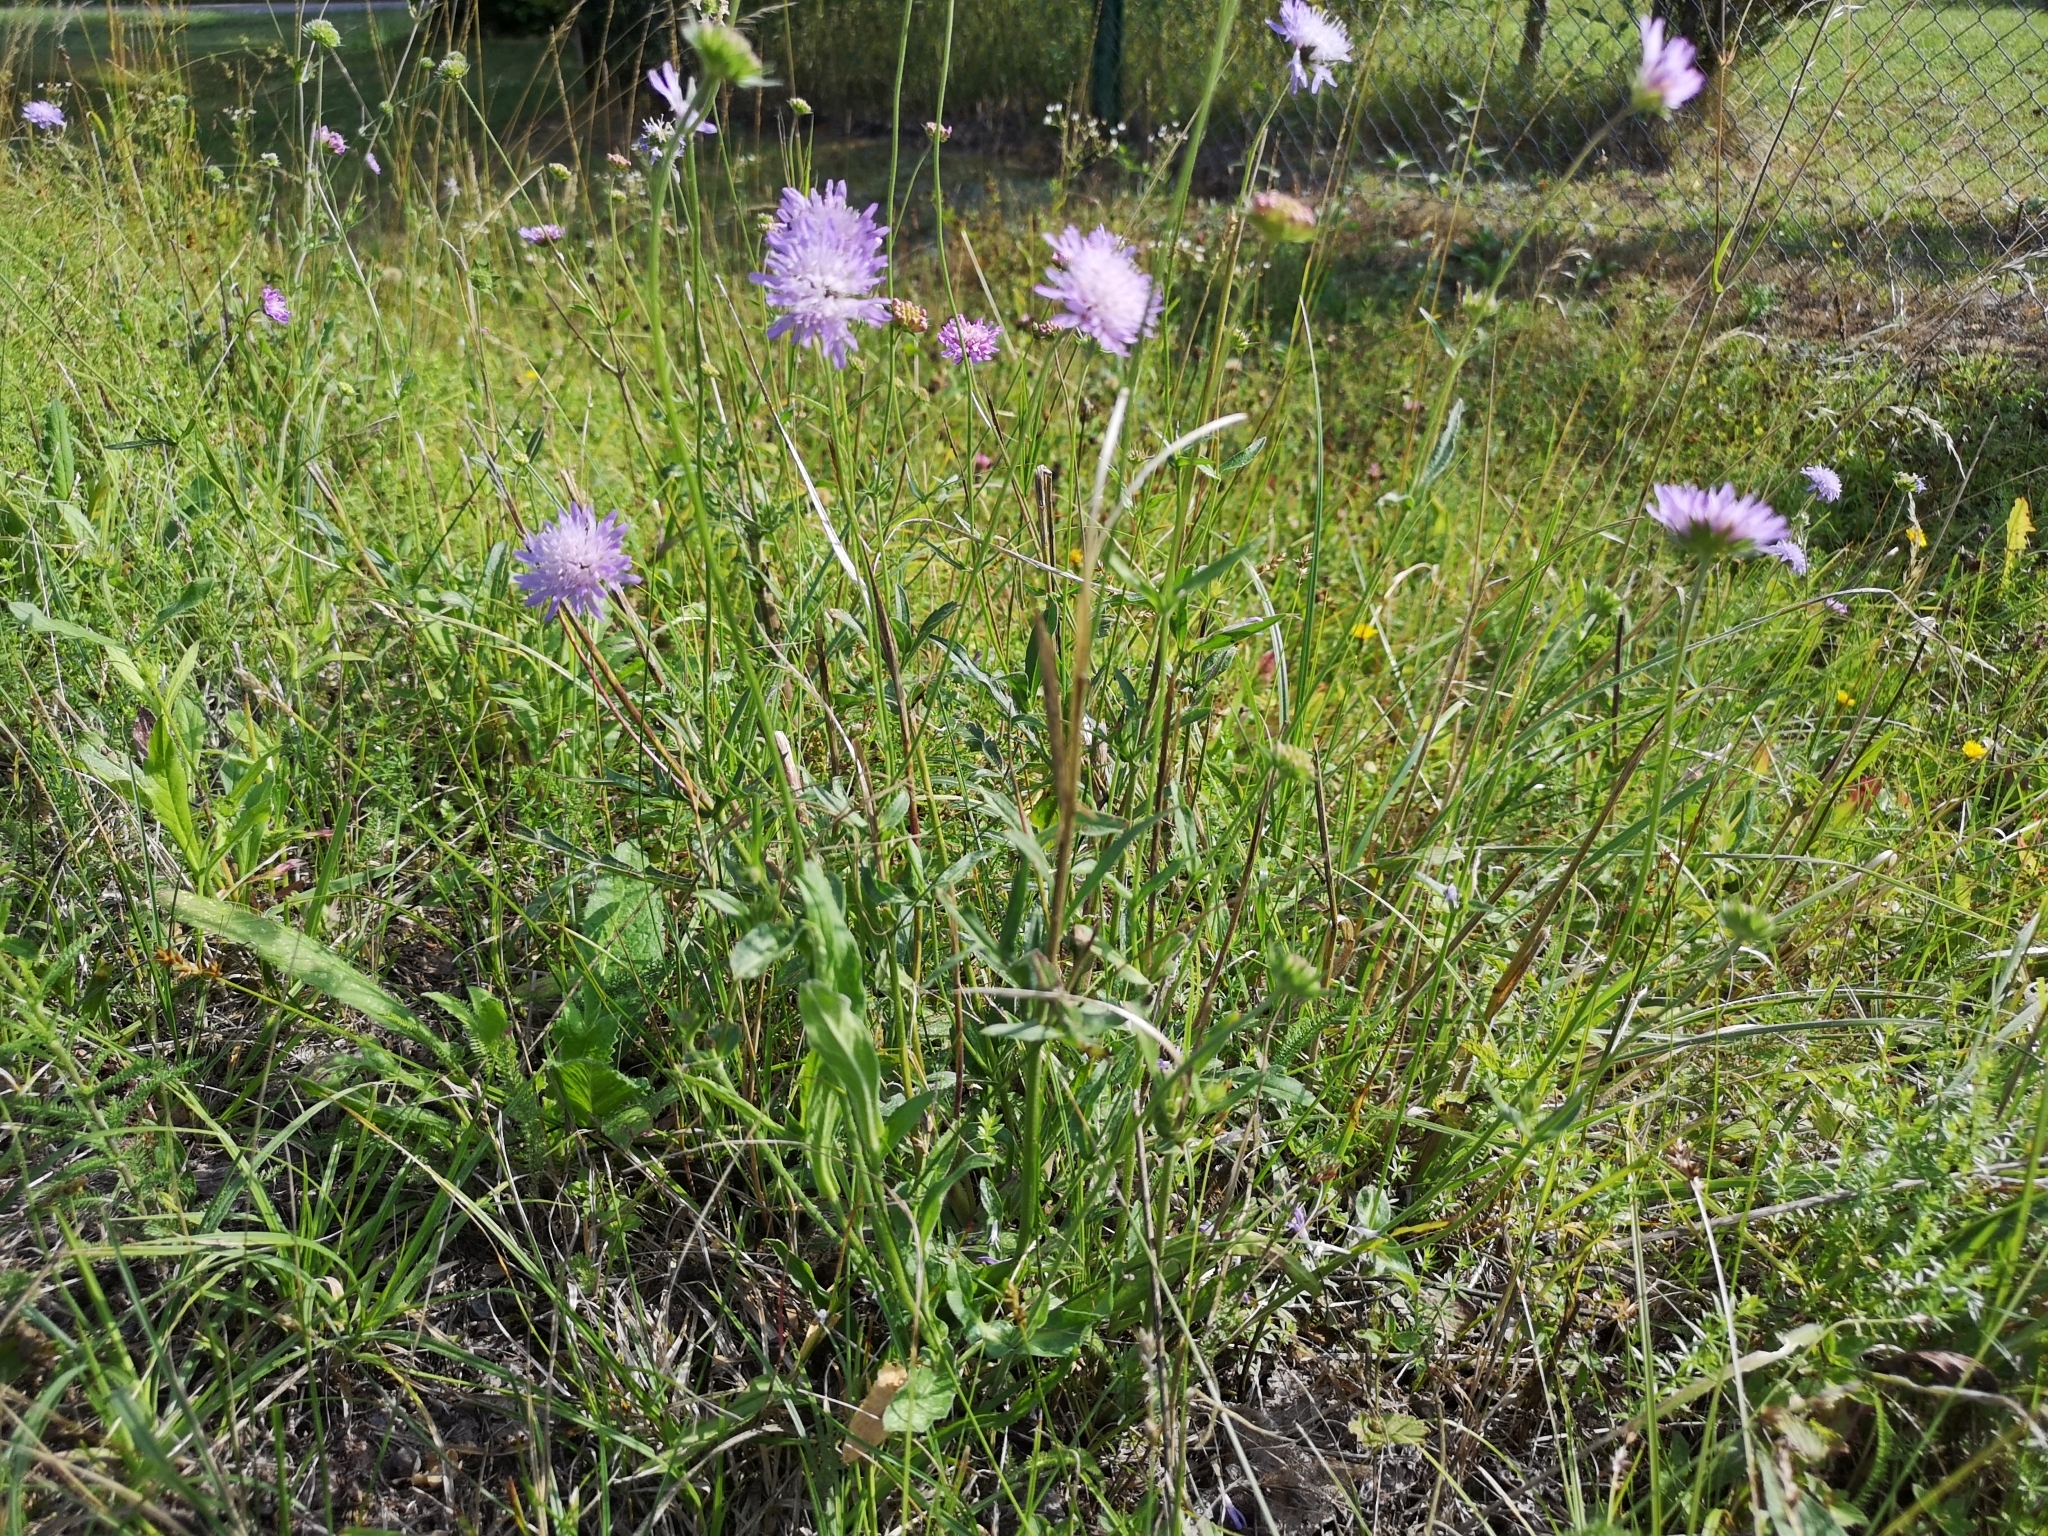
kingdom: Plantae
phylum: Tracheophyta
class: Magnoliopsida
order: Dipsacales
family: Caprifoliaceae
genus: Knautia
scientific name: Knautia arvensis
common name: Field scabiosa
